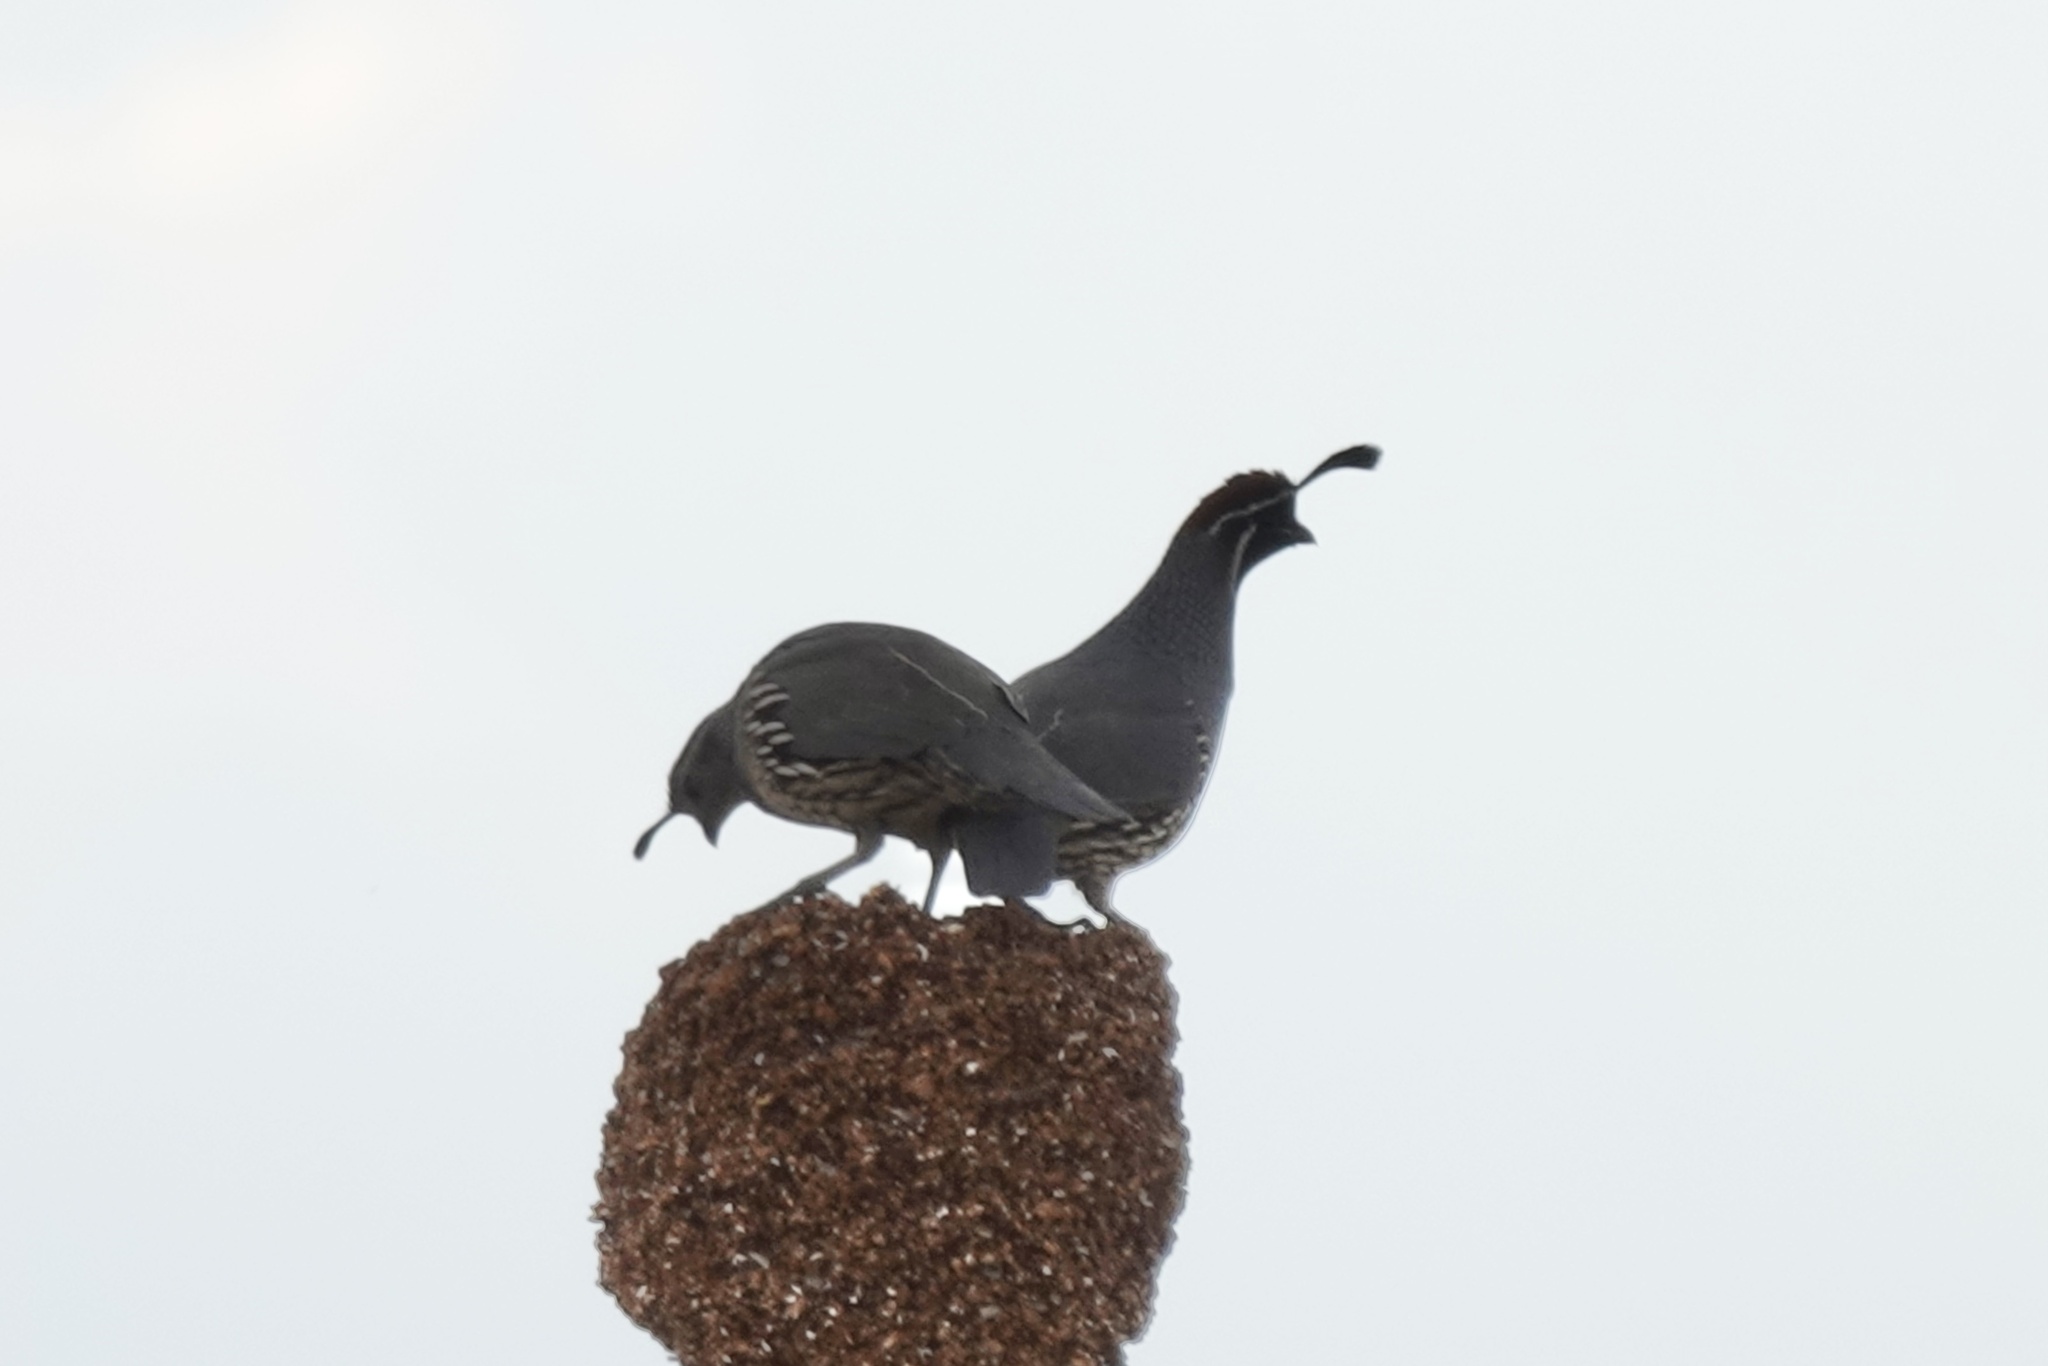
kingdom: Animalia
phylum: Chordata
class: Aves
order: Galliformes
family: Odontophoridae
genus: Callipepla
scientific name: Callipepla gambelii
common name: Gambel's quail
